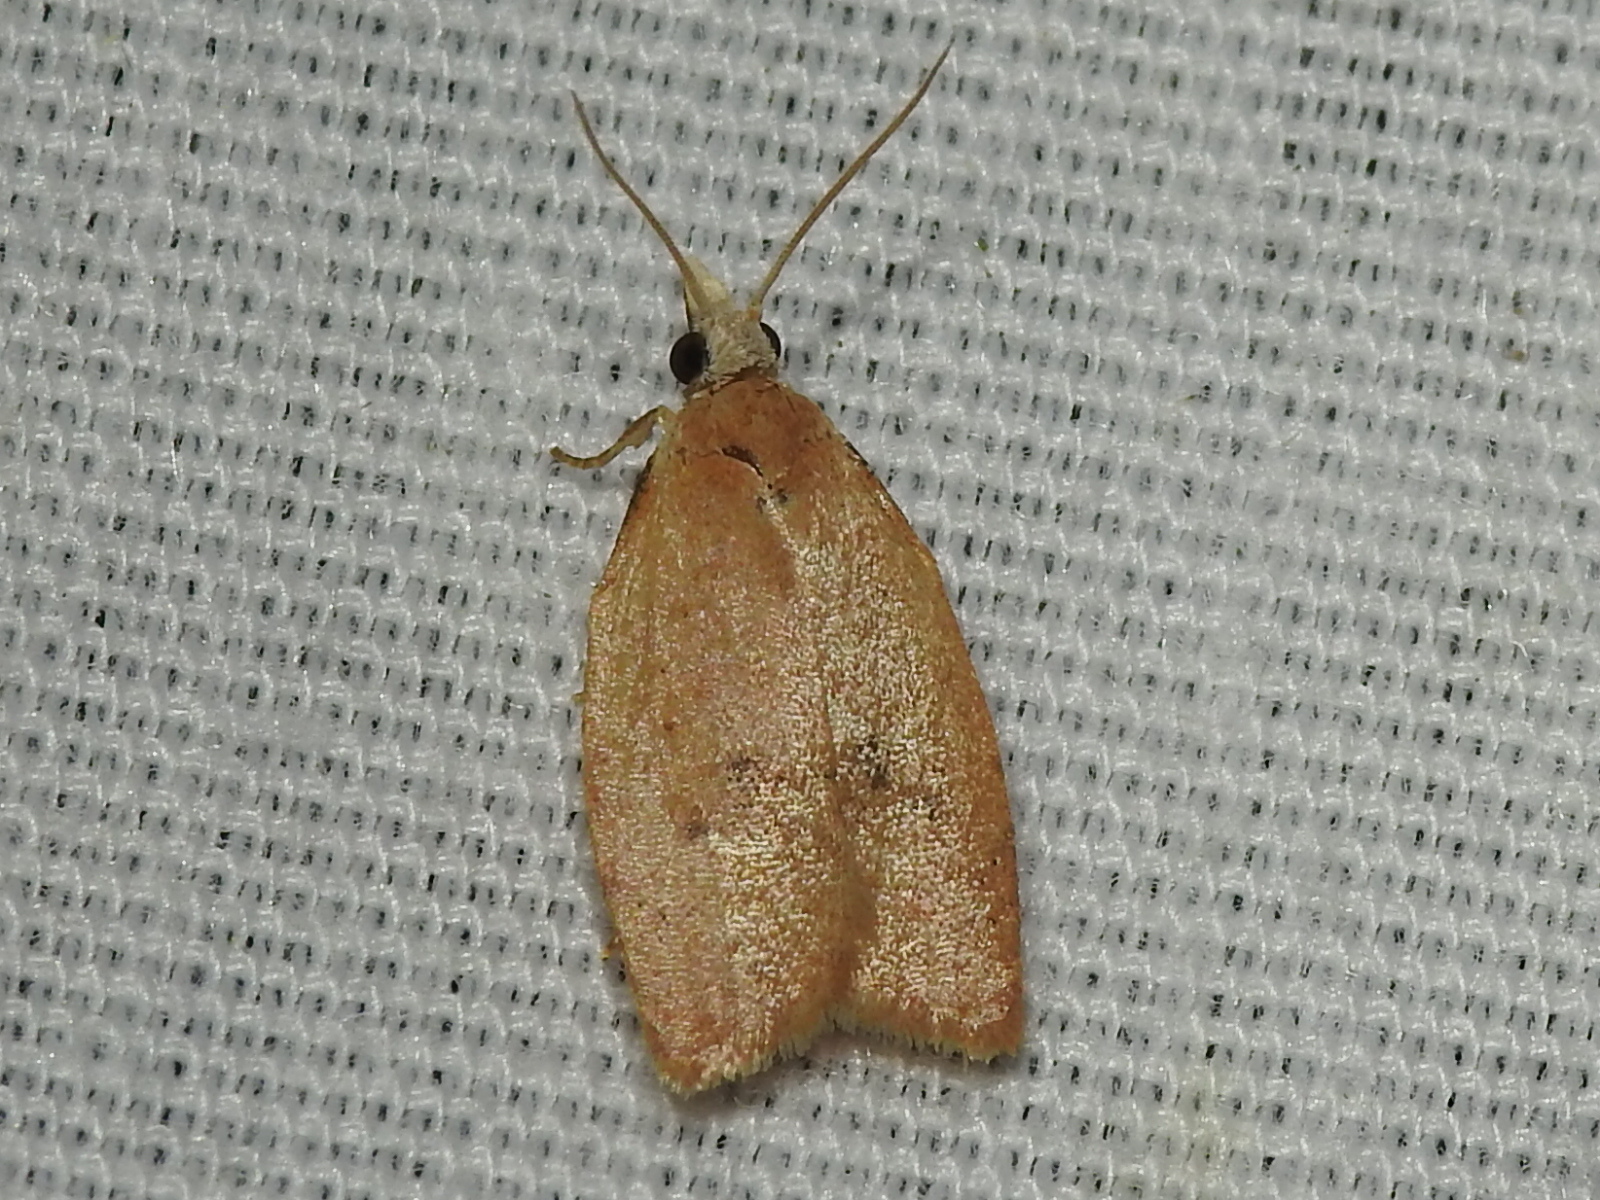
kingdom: Animalia
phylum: Arthropoda
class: Insecta
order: Lepidoptera
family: Tortricidae
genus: Sparganothoides
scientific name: Sparganothoides lentiginosana
